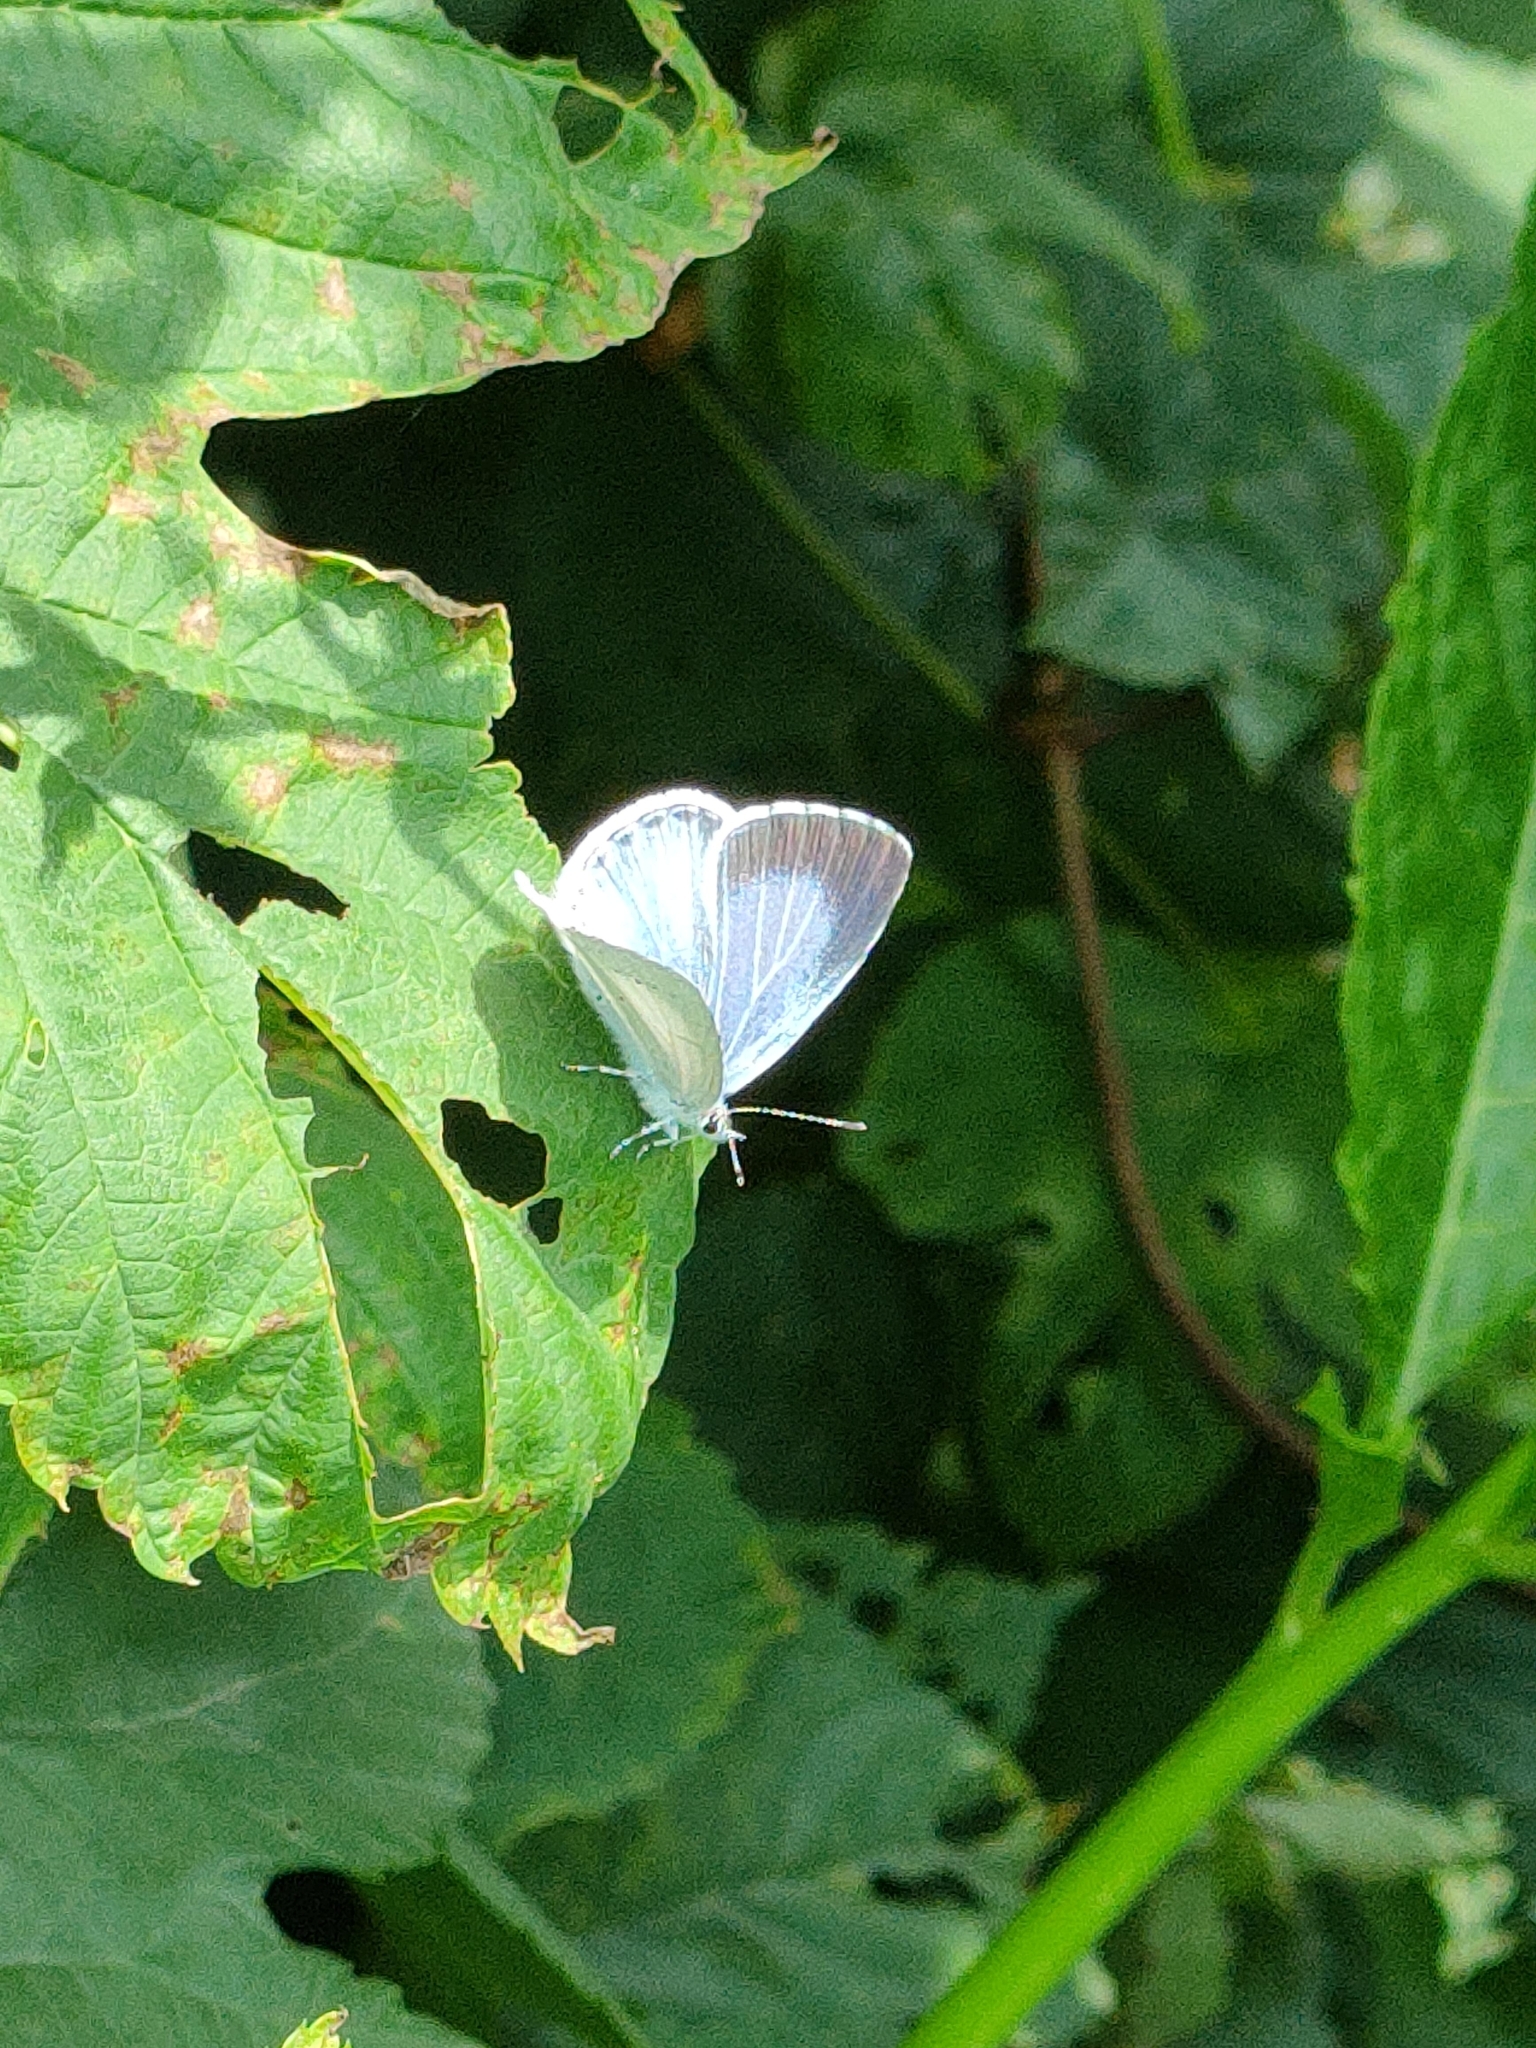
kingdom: Animalia
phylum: Arthropoda
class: Insecta
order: Lepidoptera
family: Lycaenidae
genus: Celastrina
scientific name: Celastrina argiolus
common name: Holly blue
